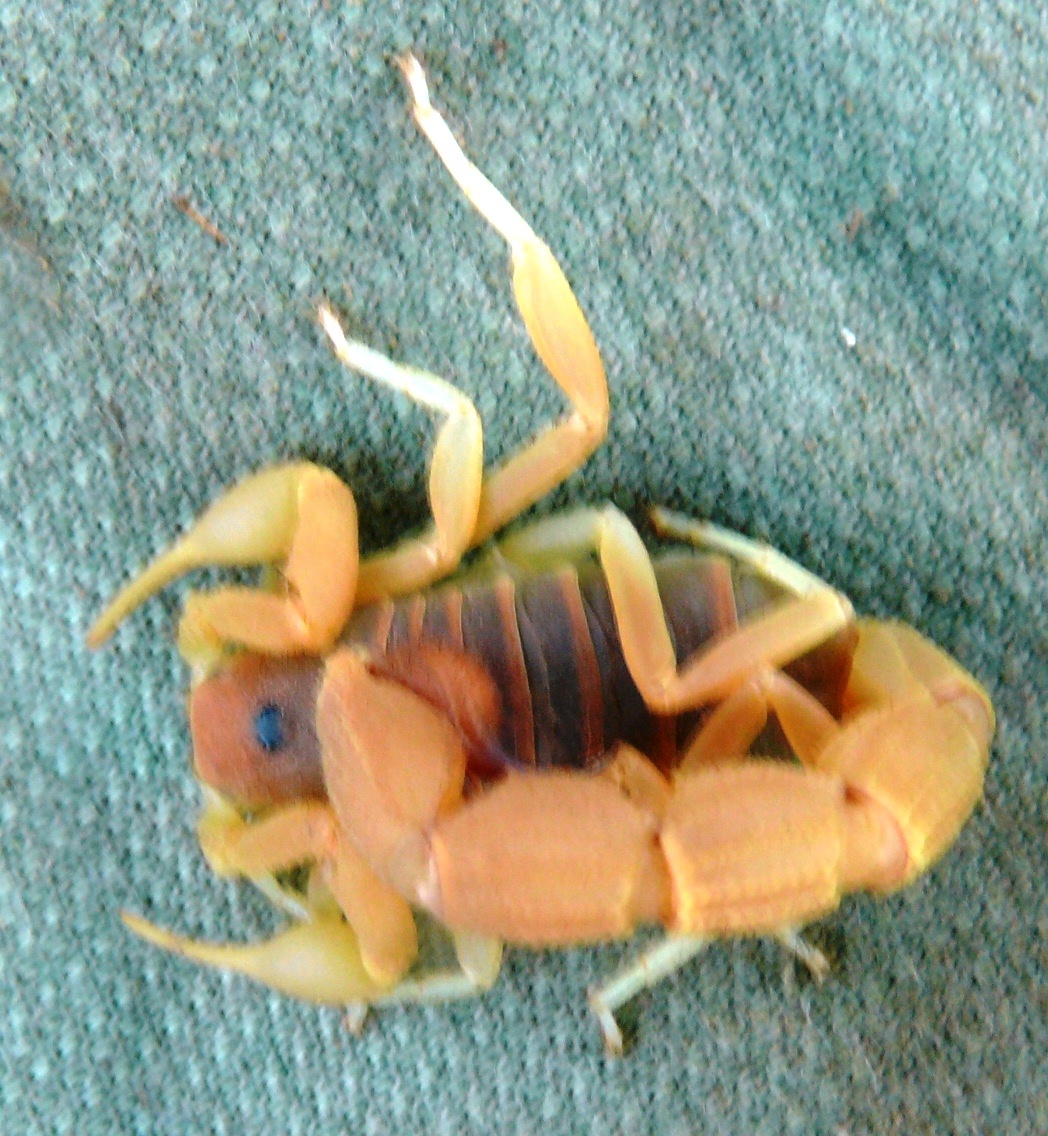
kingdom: Animalia
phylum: Arthropoda
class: Arachnida
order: Scorpiones
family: Buthidae
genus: Parabuthus
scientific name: Parabuthus capensis
